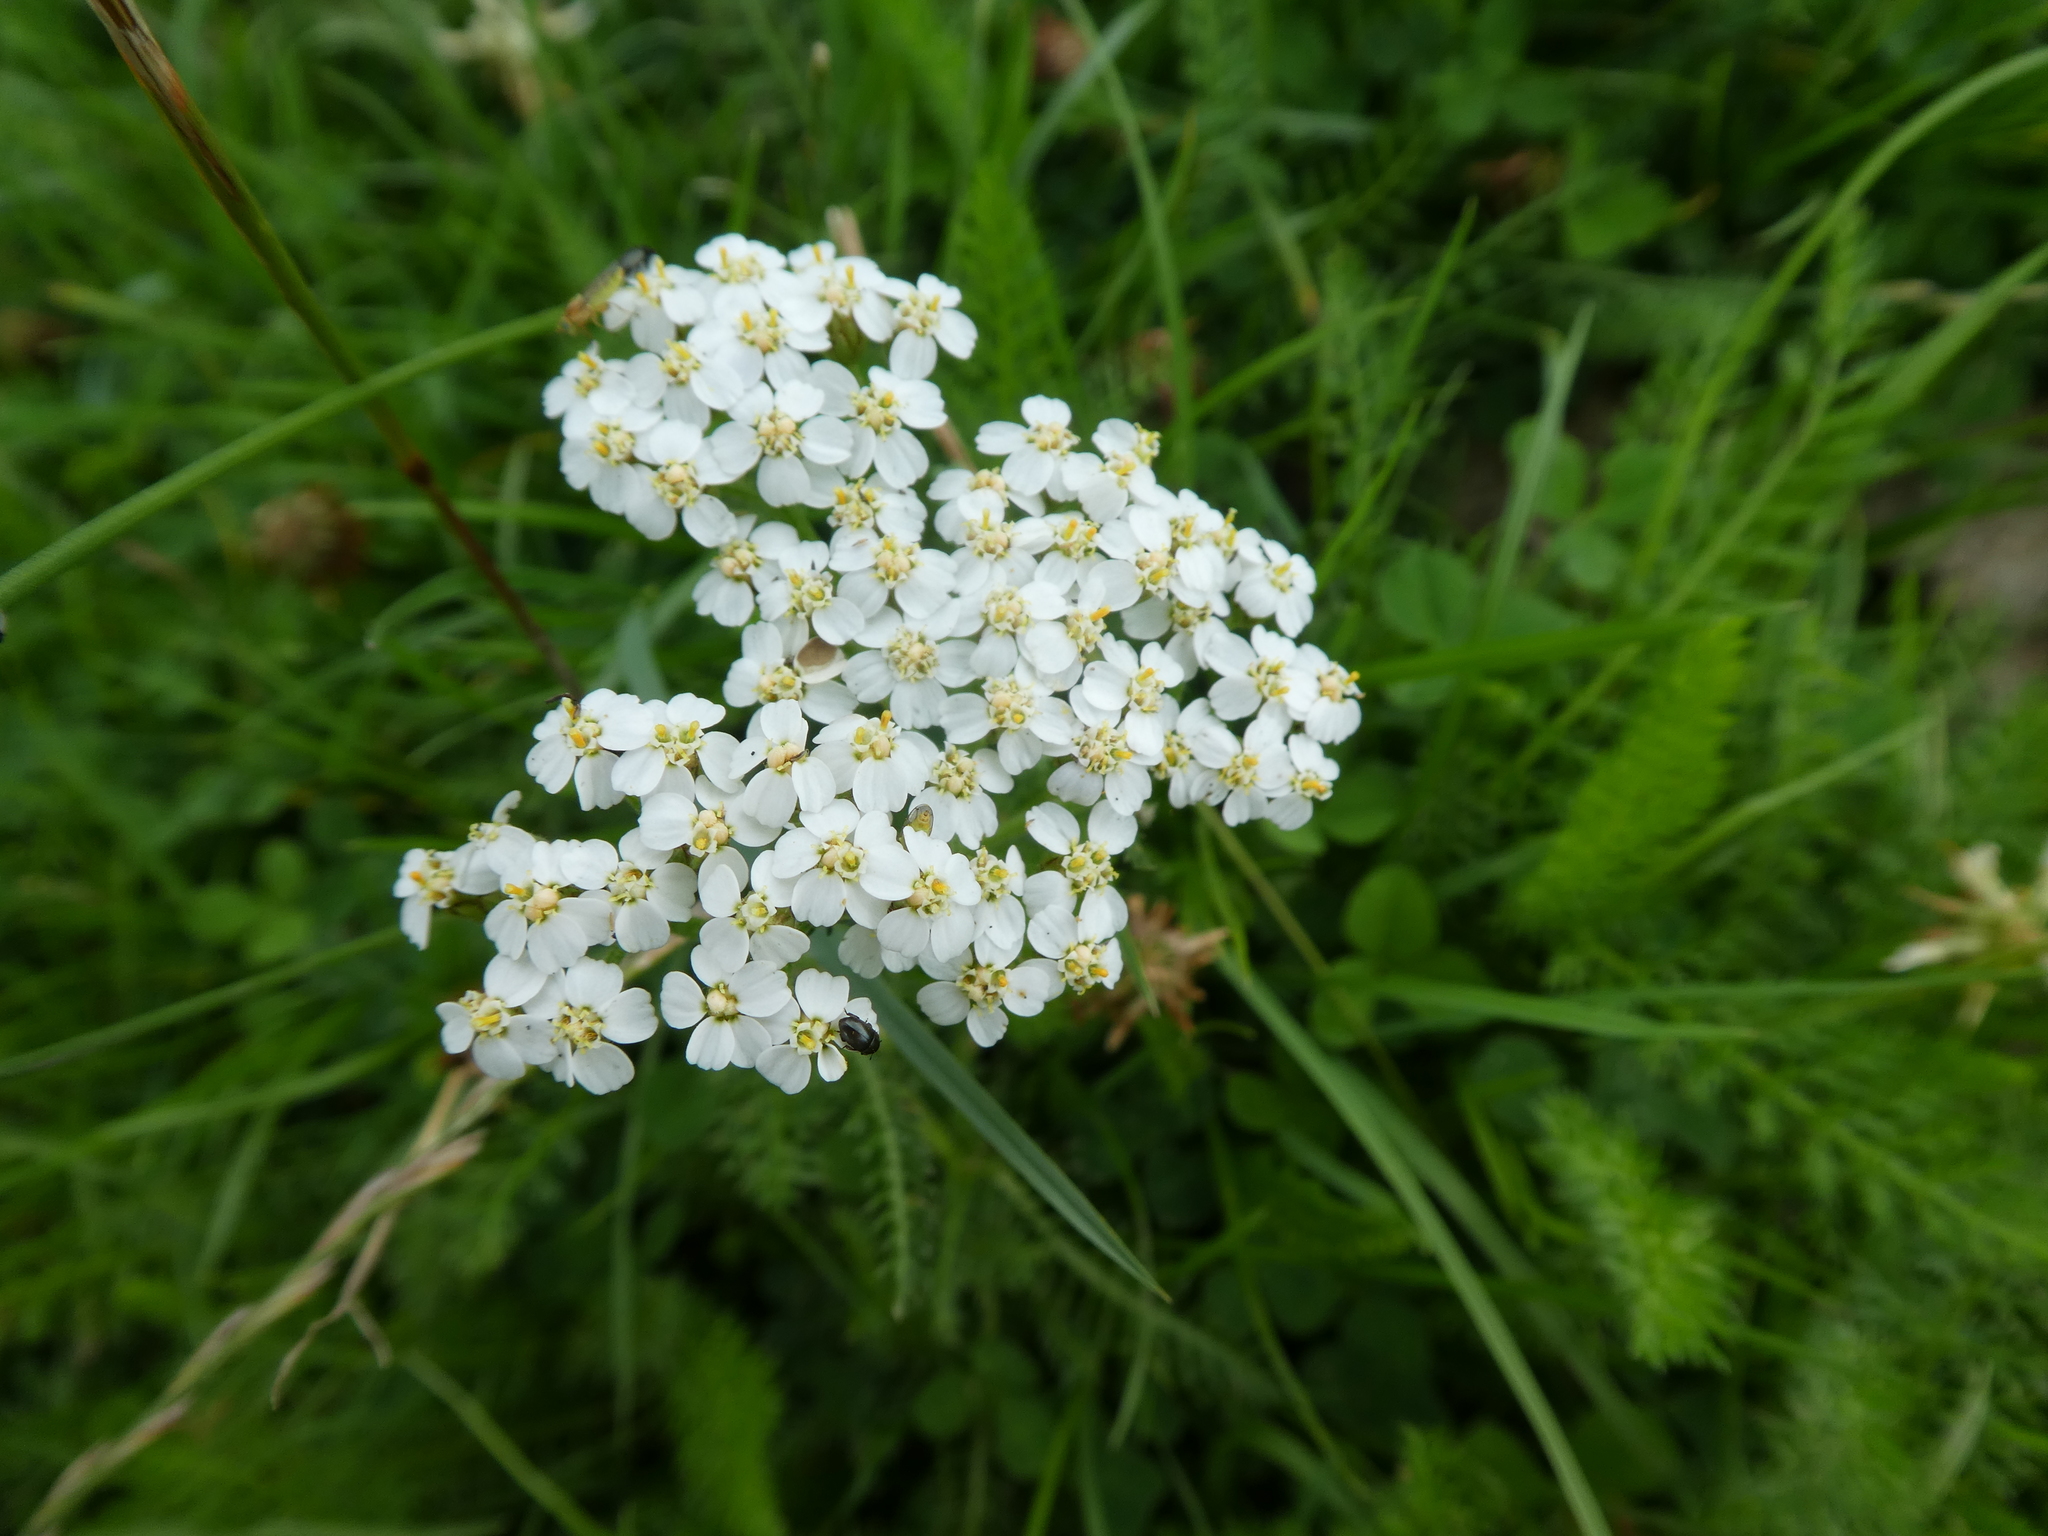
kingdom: Plantae
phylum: Tracheophyta
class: Magnoliopsida
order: Asterales
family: Asteraceae
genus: Achillea
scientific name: Achillea millefolium
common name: Yarrow
